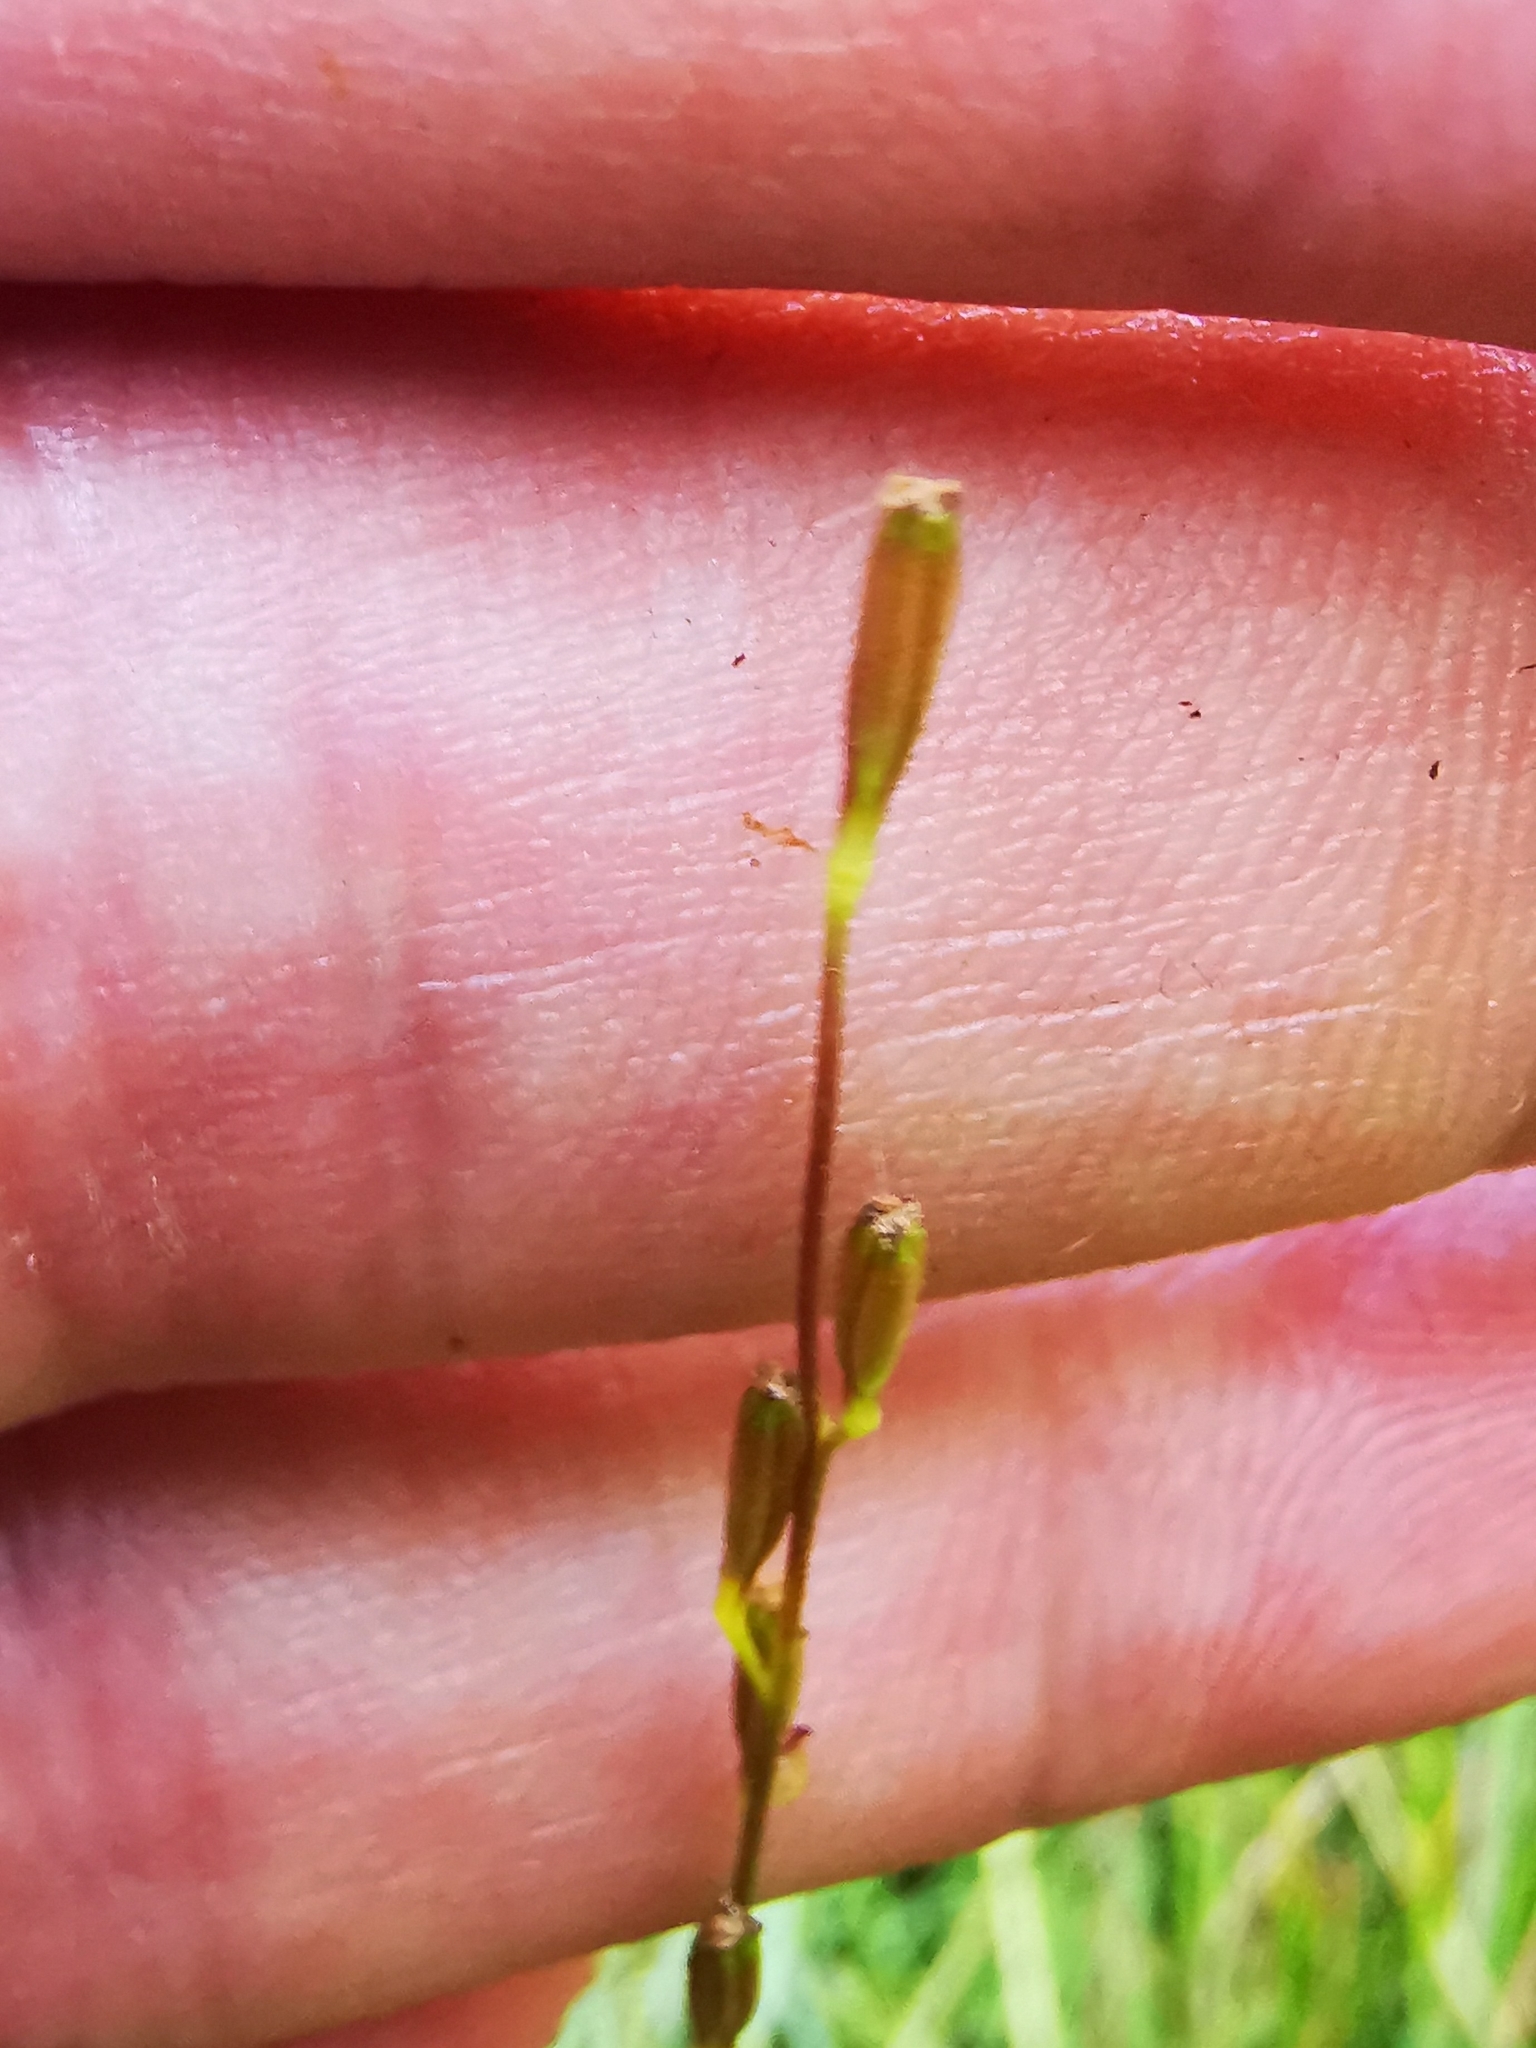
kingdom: Plantae
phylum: Tracheophyta
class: Liliopsida
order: Alismatales
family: Juncaginaceae
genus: Triglochin
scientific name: Triglochin palustris
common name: Marsh arrowgrass
